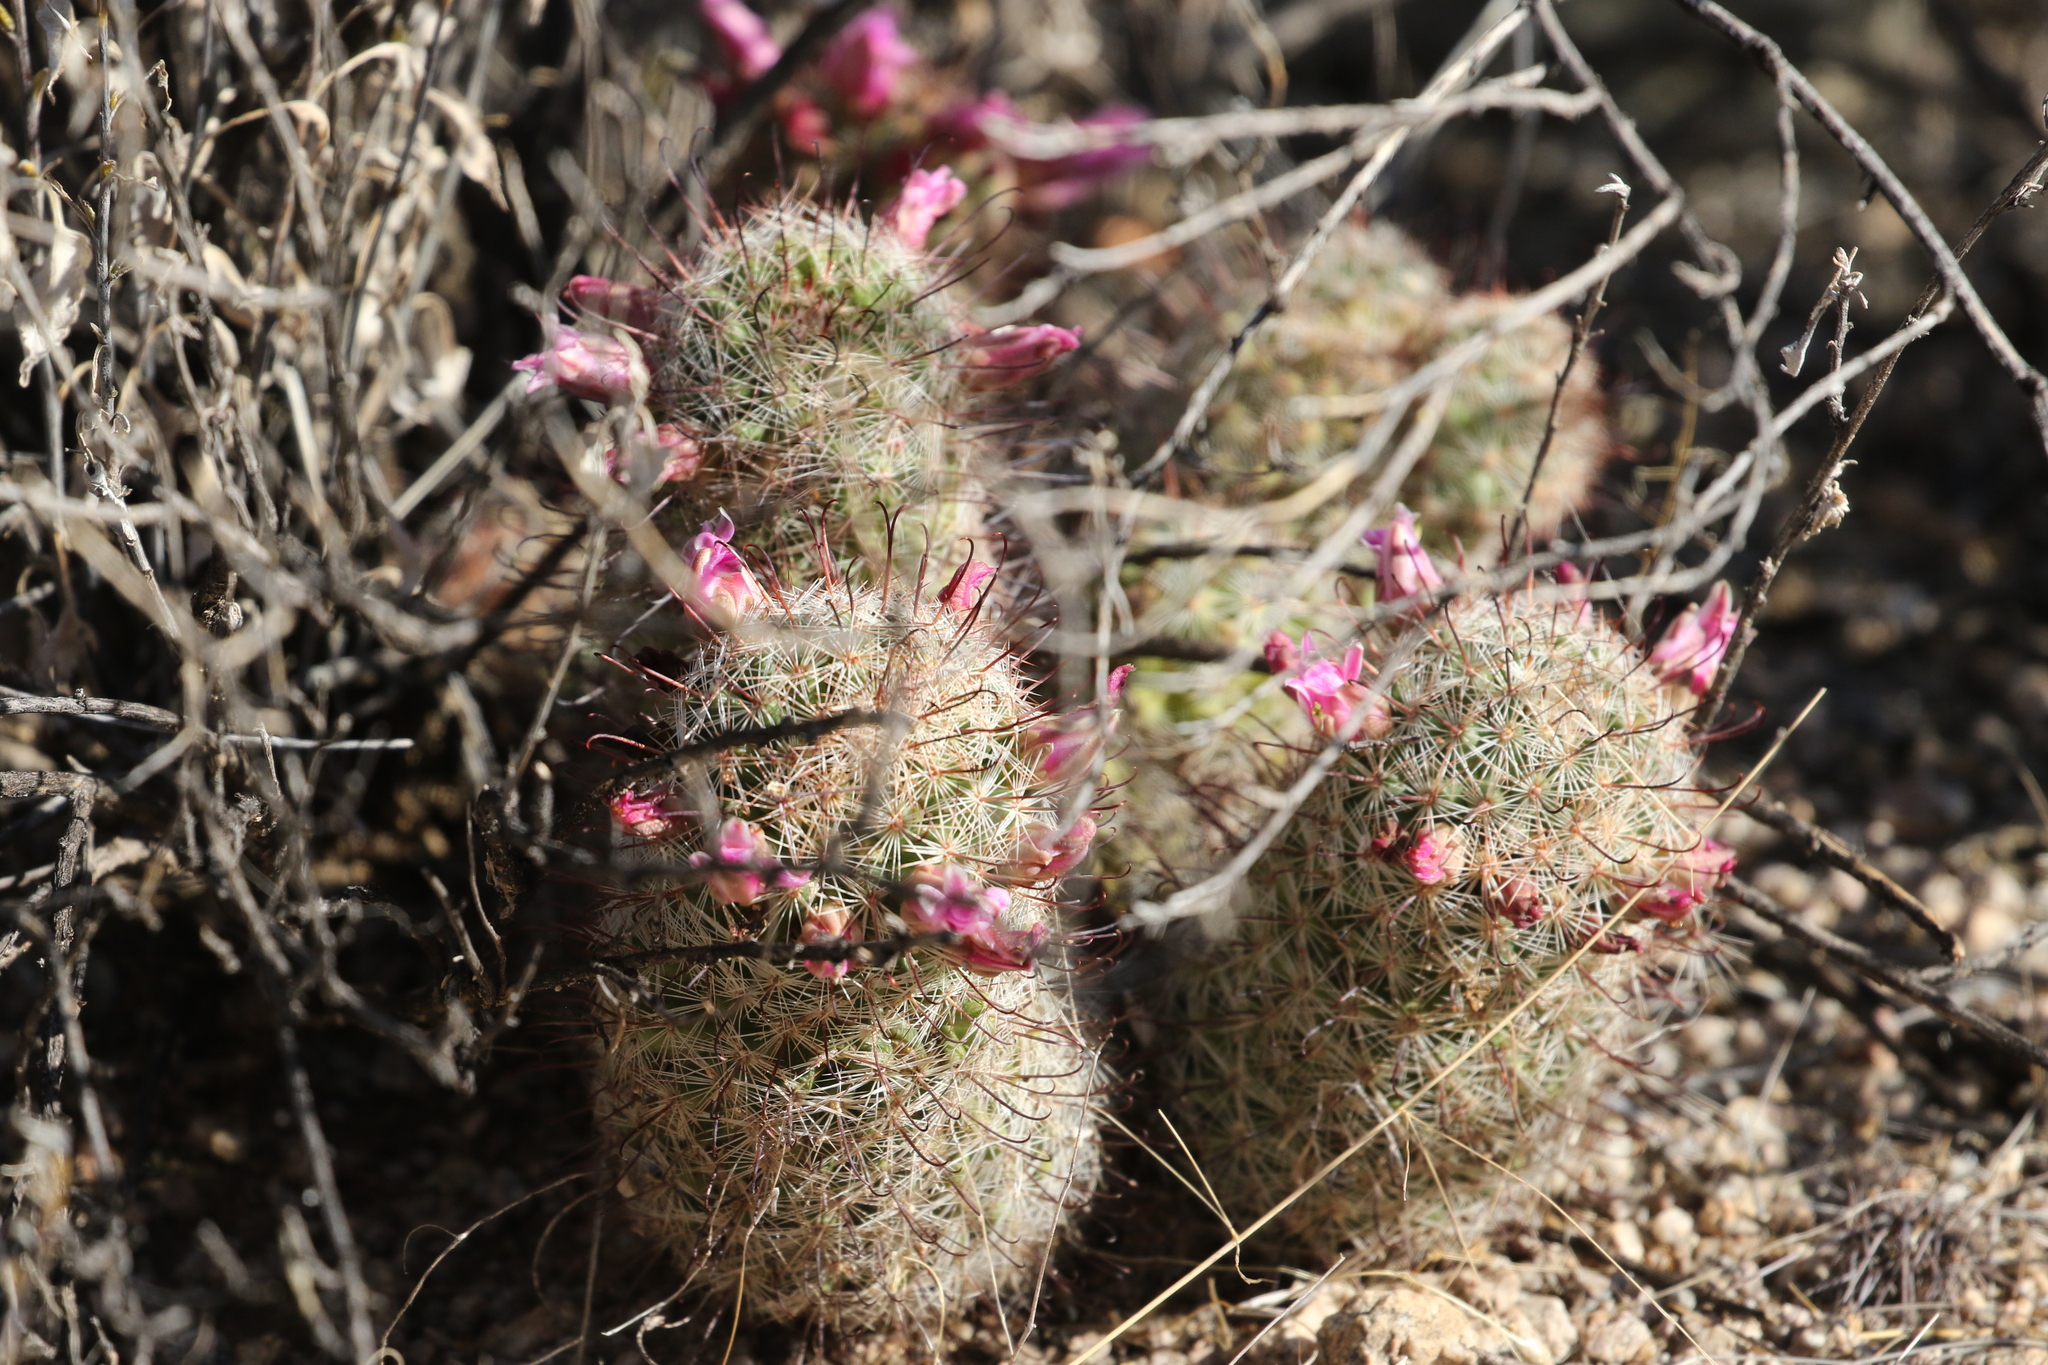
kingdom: Plantae
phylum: Tracheophyta
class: Magnoliopsida
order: Caryophyllales
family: Cactaceae
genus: Cochemiea
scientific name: Cochemiea grahamii
